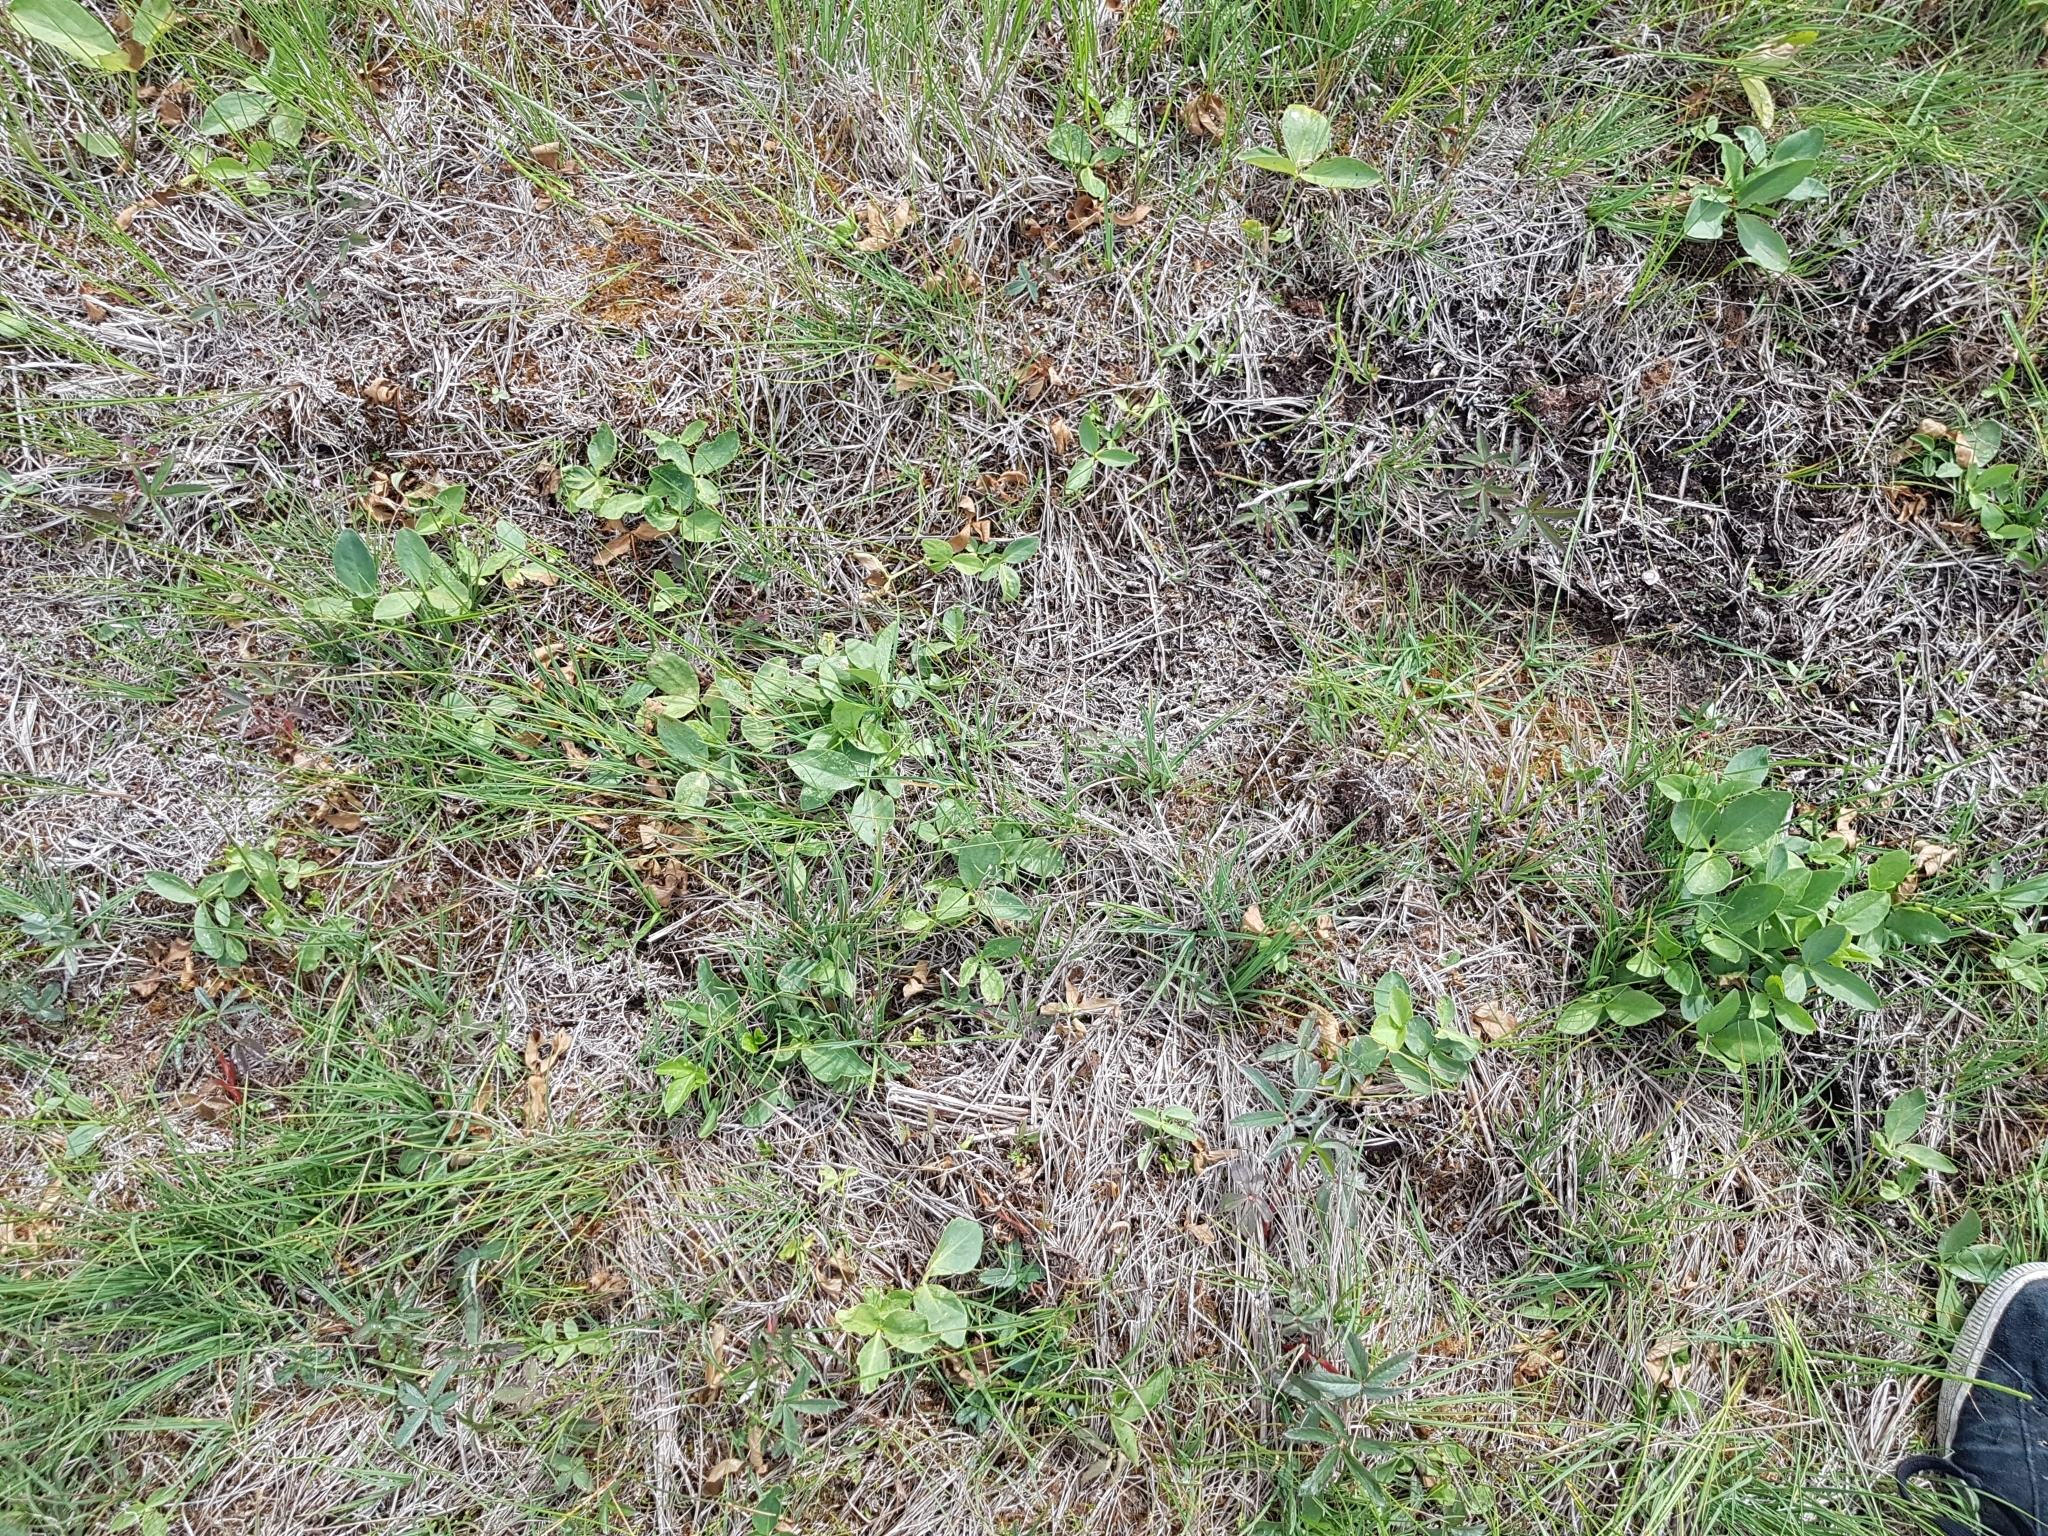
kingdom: Plantae
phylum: Tracheophyta
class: Magnoliopsida
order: Asterales
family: Menyanthaceae
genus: Menyanthes
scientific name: Menyanthes trifoliata
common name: Bogbean
